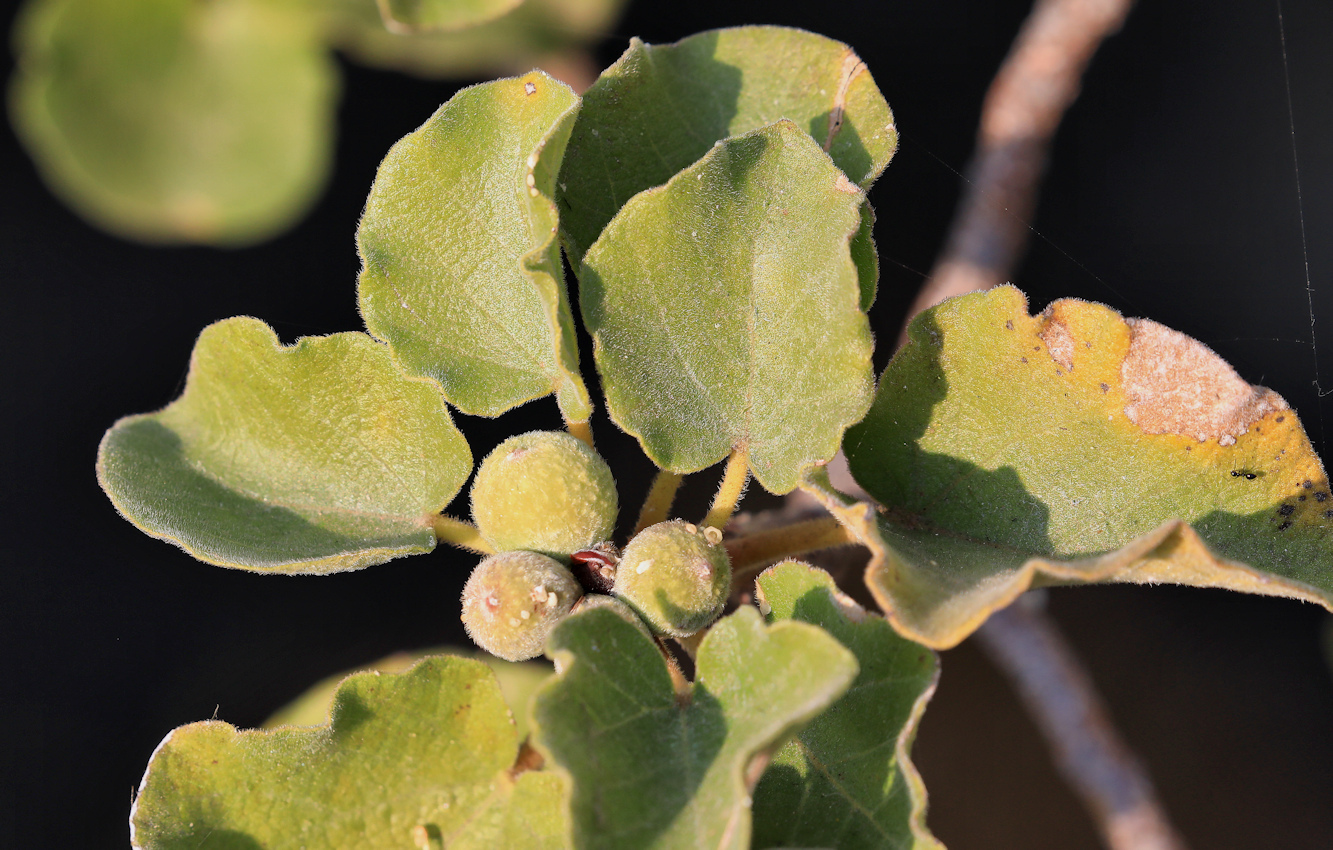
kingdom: Plantae
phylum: Tracheophyta
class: Magnoliopsida
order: Rosales
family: Moraceae
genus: Ficus
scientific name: Ficus tettensis
